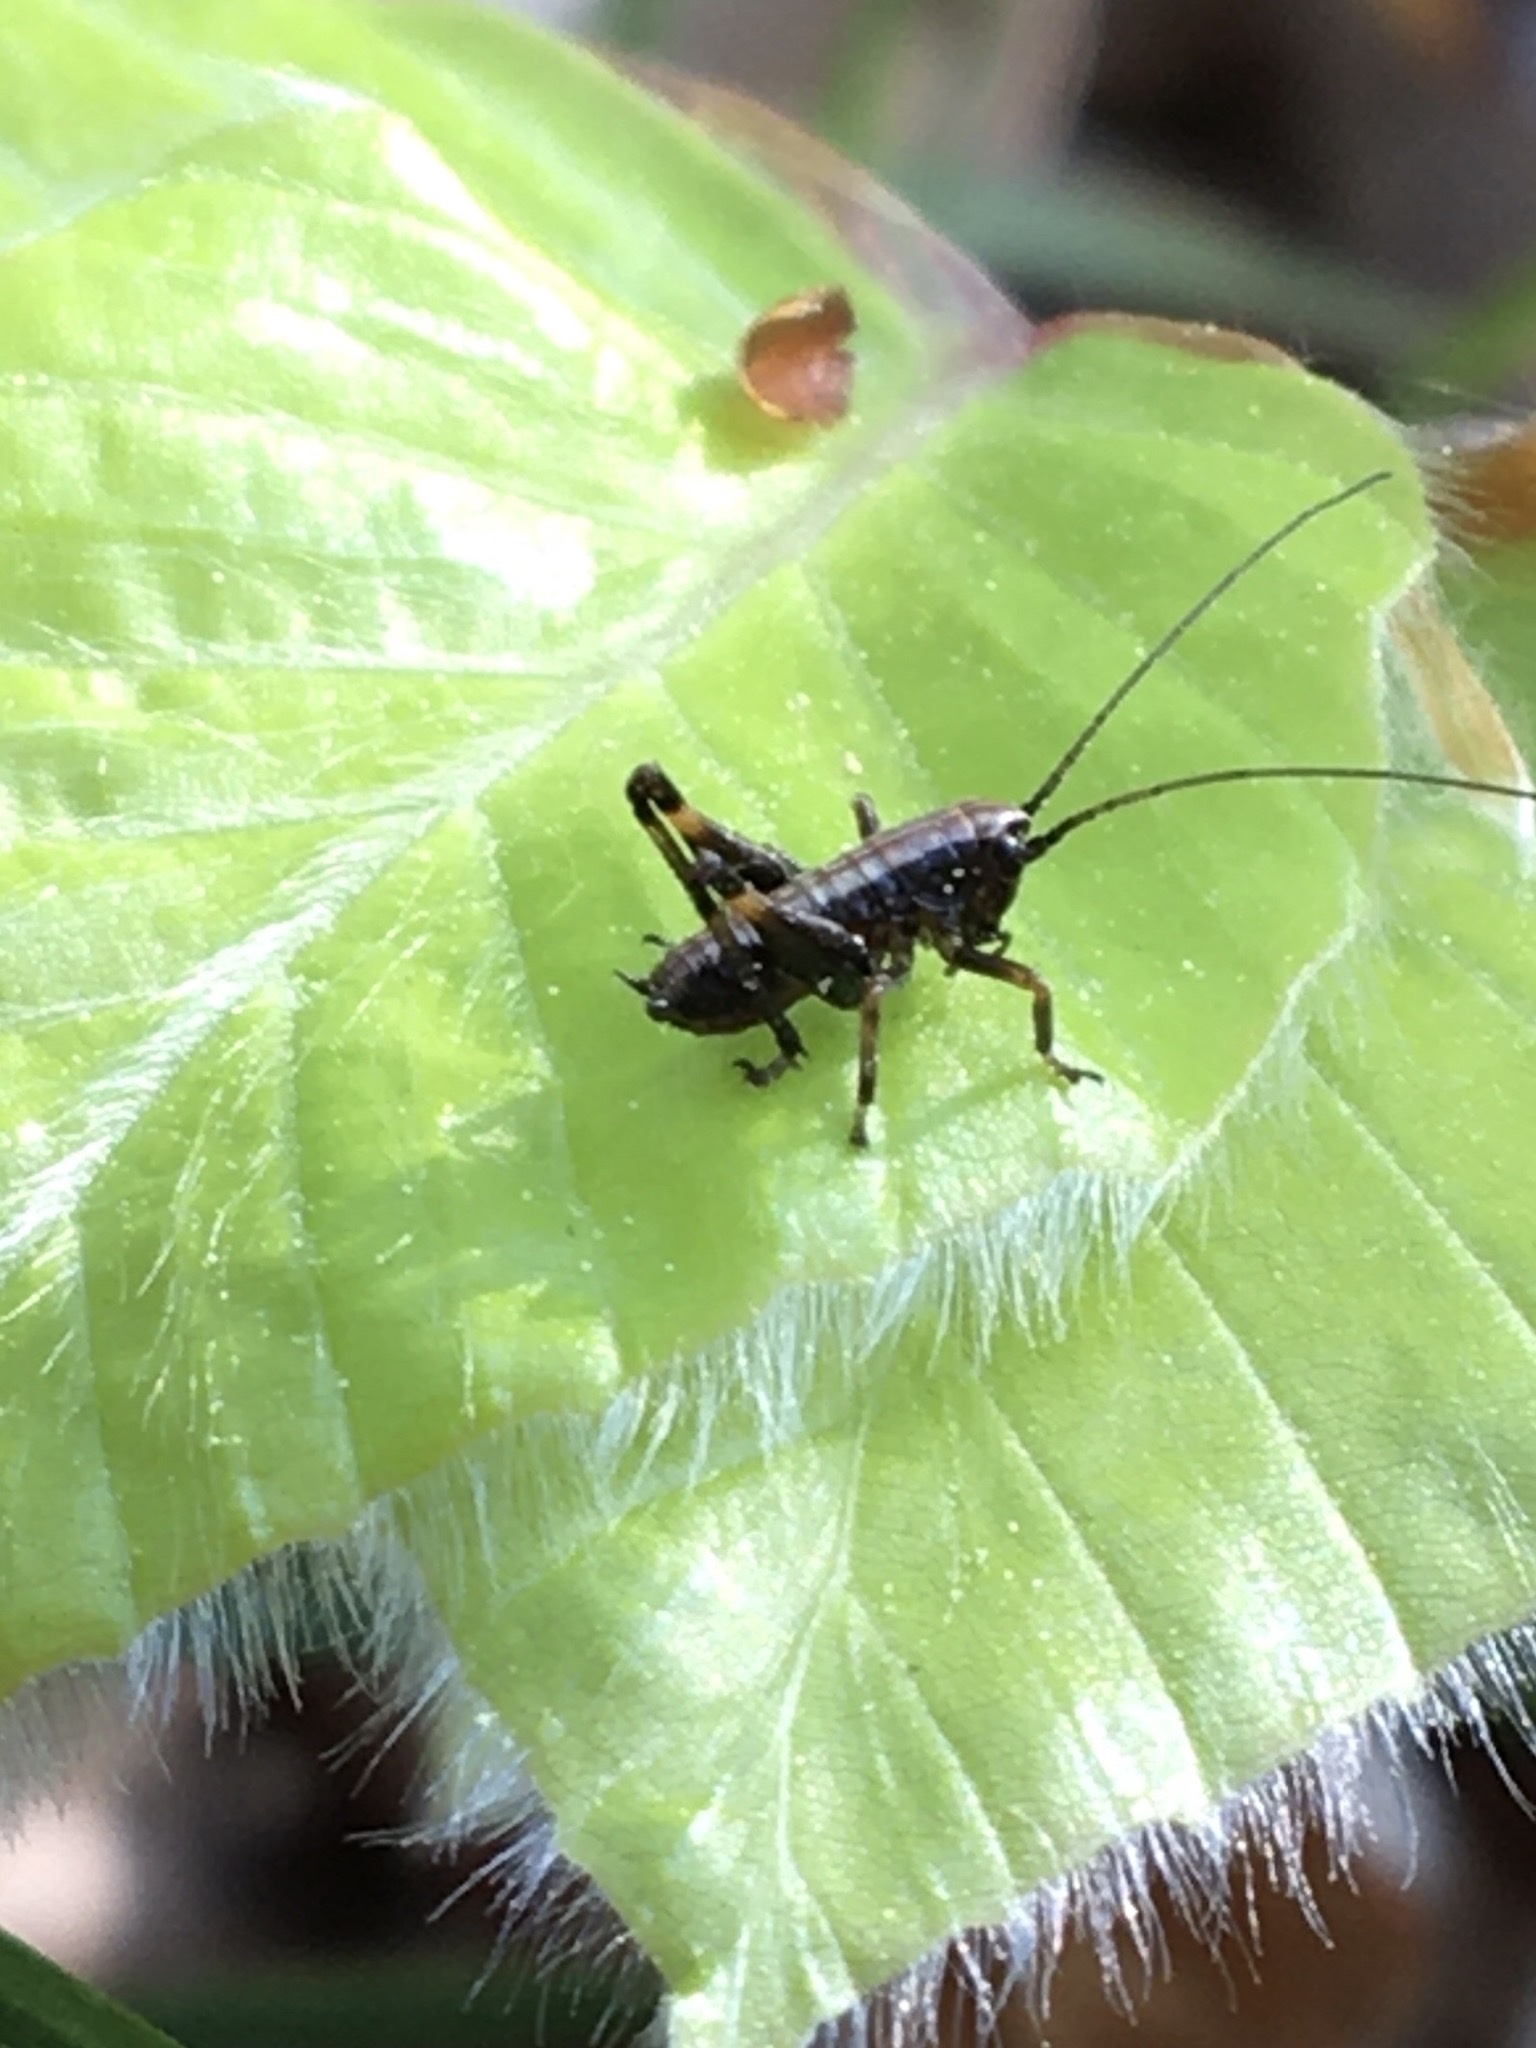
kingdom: Animalia
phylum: Arthropoda
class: Insecta
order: Orthoptera
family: Tettigoniidae
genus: Pholidoptera
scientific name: Pholidoptera griseoaptera
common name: Dark bush-cricket
